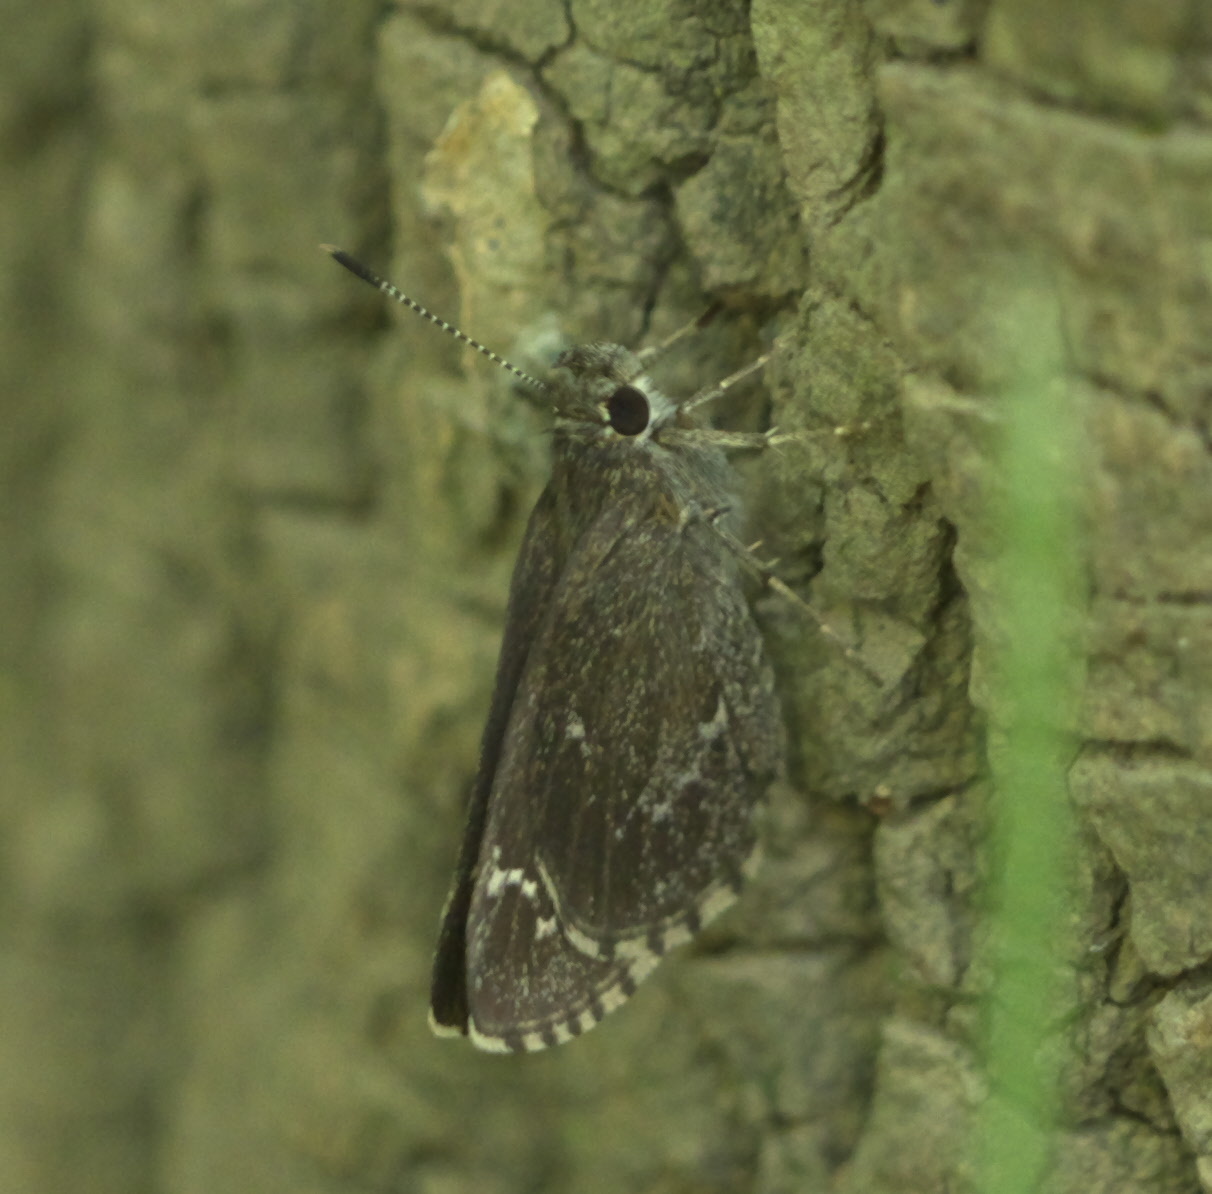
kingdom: Animalia
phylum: Arthropoda
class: Insecta
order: Lepidoptera
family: Hesperiidae
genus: Mastor
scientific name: Mastor celia
